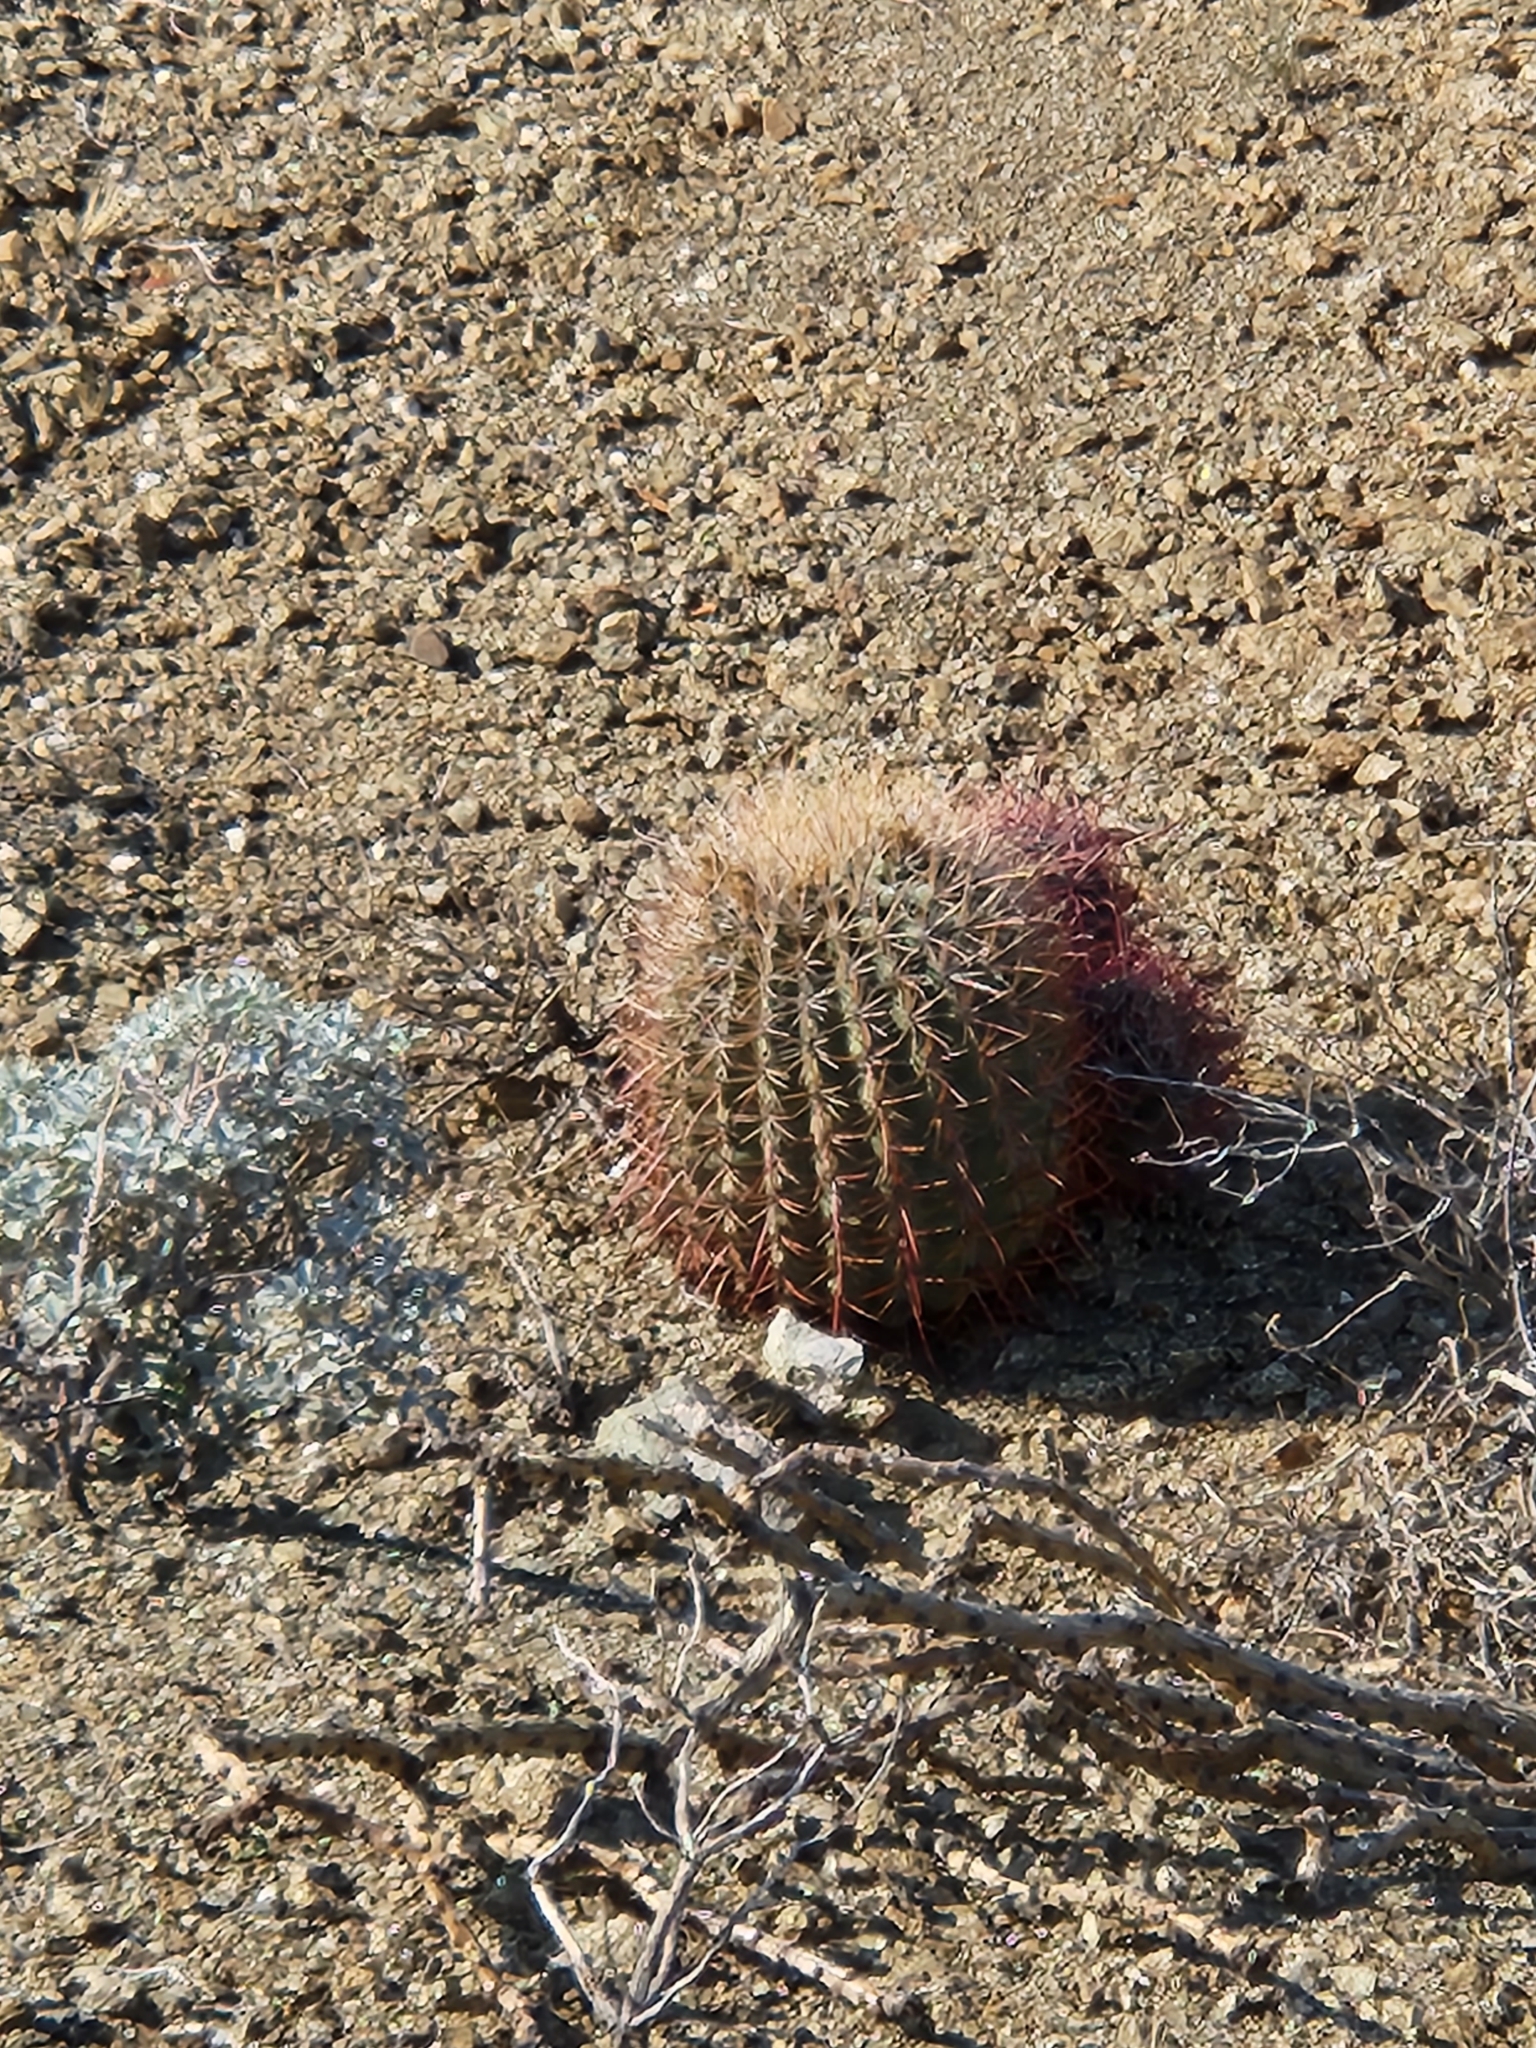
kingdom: Plantae
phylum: Tracheophyta
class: Magnoliopsida
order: Caryophyllales
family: Cactaceae
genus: Ferocactus
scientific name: Ferocactus cylindraceus
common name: California barrel cactus
